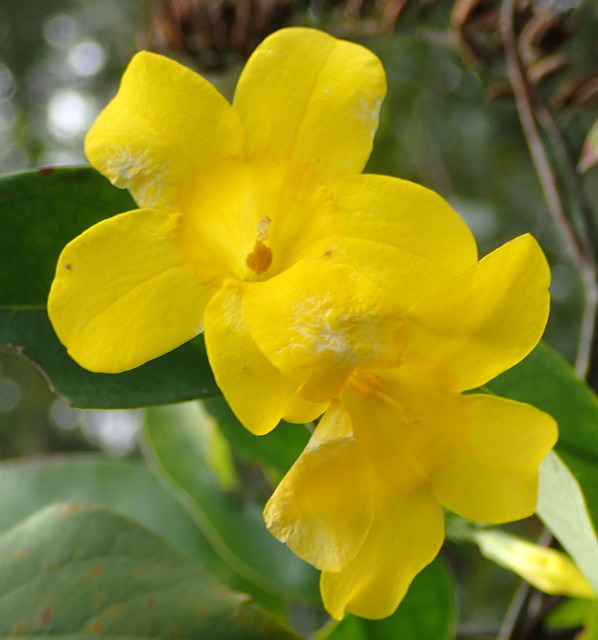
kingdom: Plantae
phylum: Tracheophyta
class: Magnoliopsida
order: Gentianales
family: Gelsemiaceae
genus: Gelsemium
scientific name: Gelsemium sempervirens
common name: Carolina-jasmine
